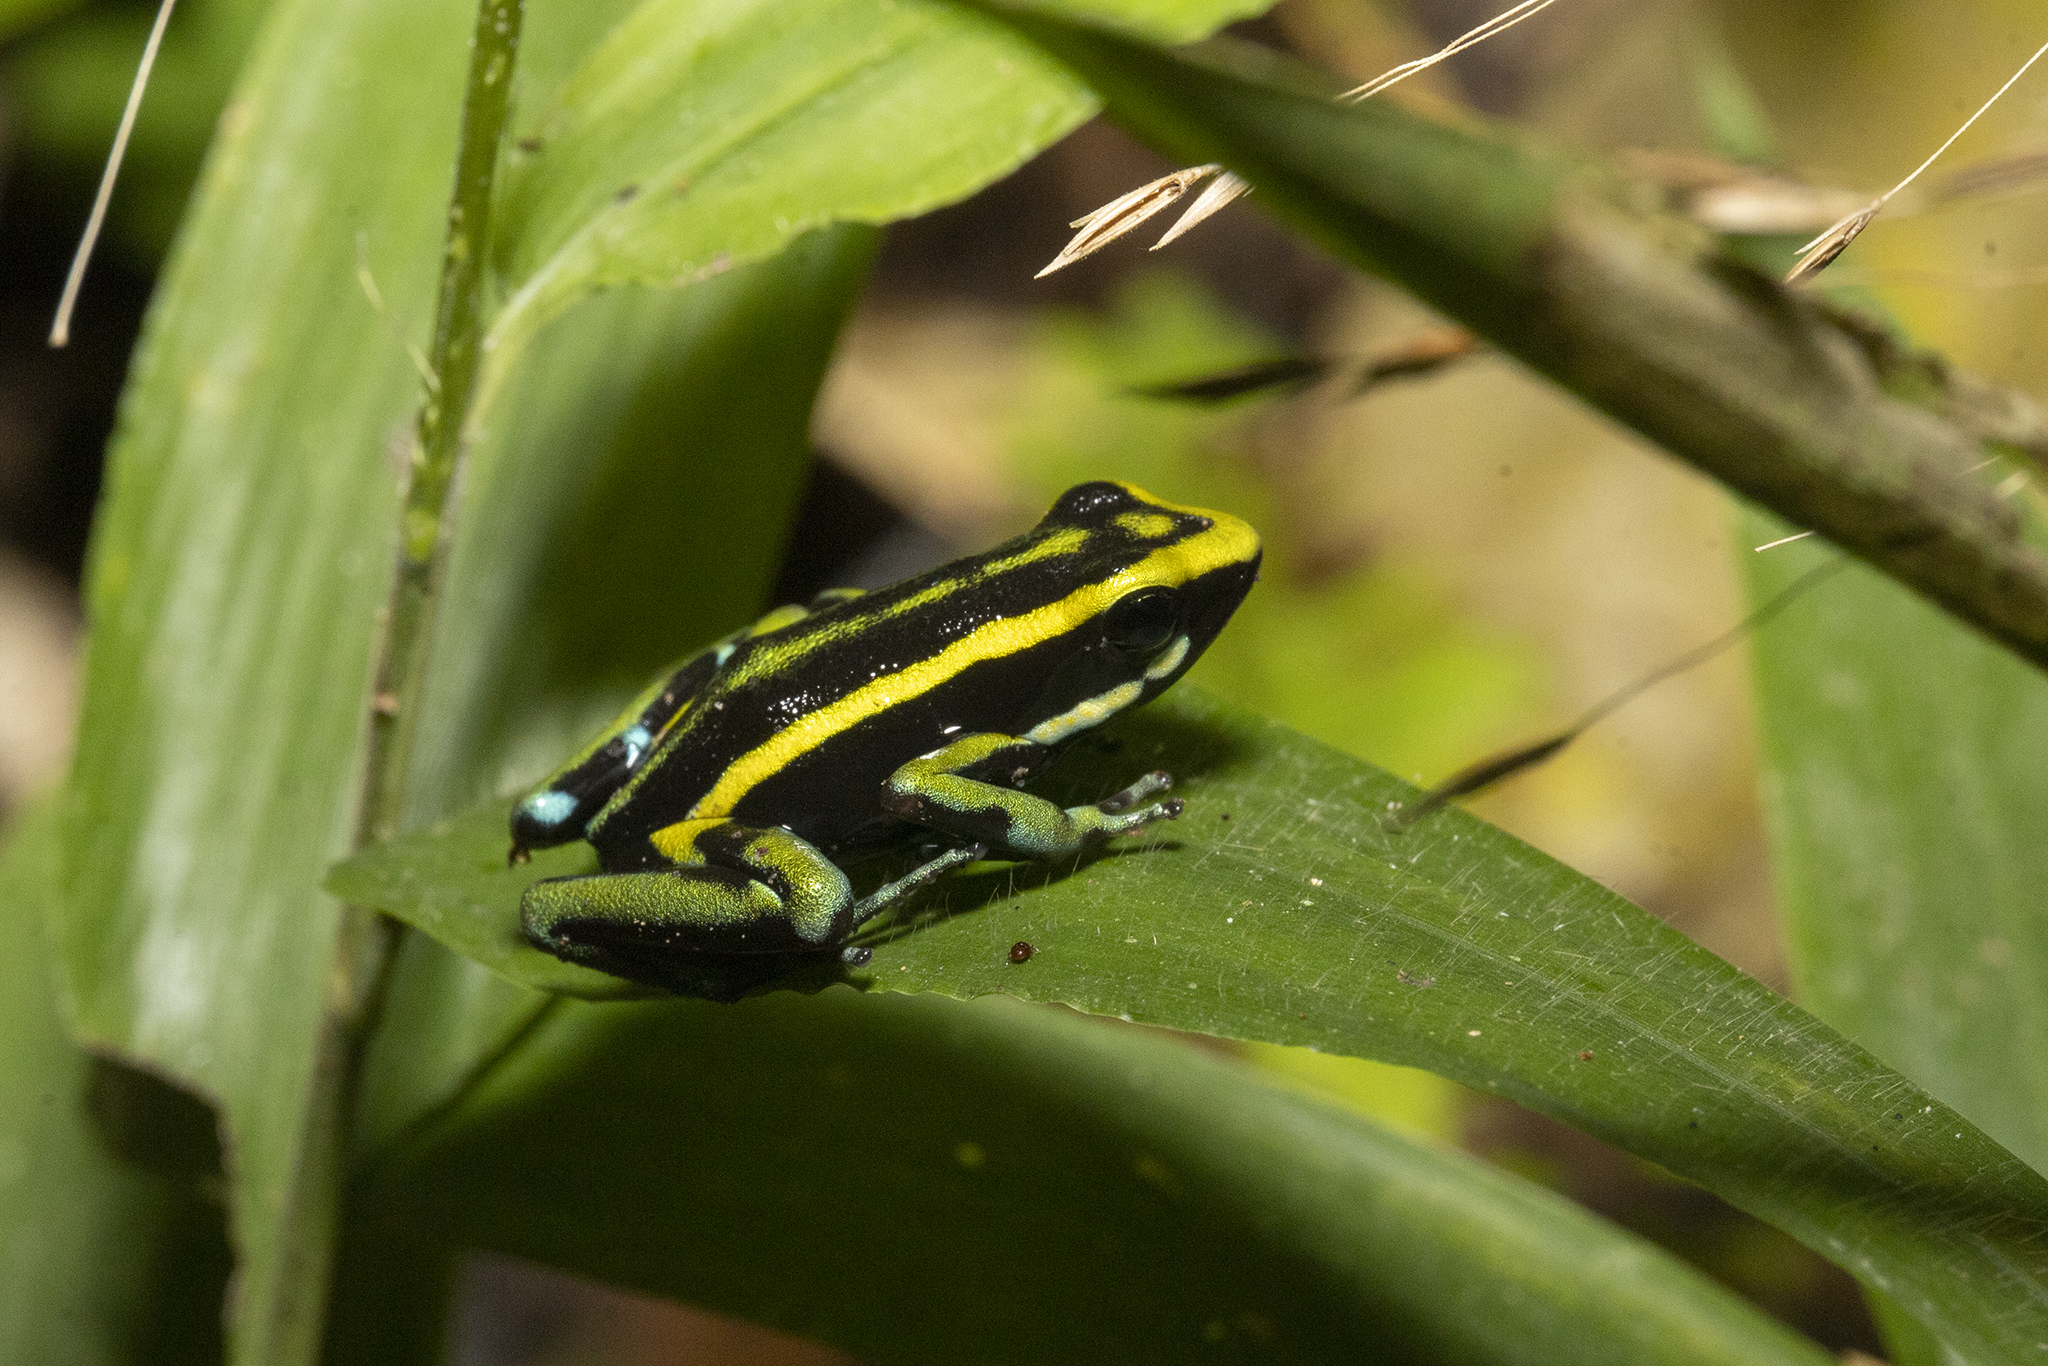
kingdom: Animalia
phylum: Chordata
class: Amphibia
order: Anura
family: Dendrobatidae
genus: Ameerega
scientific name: Ameerega trivittata
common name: Three-striped arrow-poison frog
